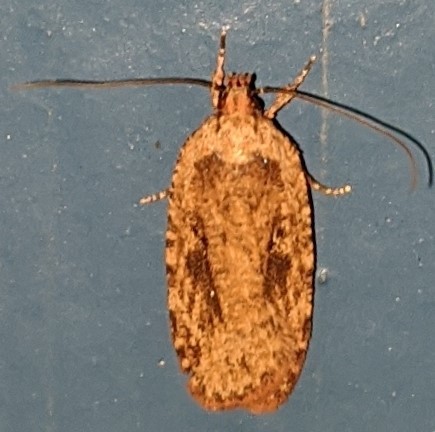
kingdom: Animalia
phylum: Arthropoda
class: Insecta
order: Lepidoptera
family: Depressariidae
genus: Agonopterix
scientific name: Agonopterix pulvipennella
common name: Goldenrod leafffolder
